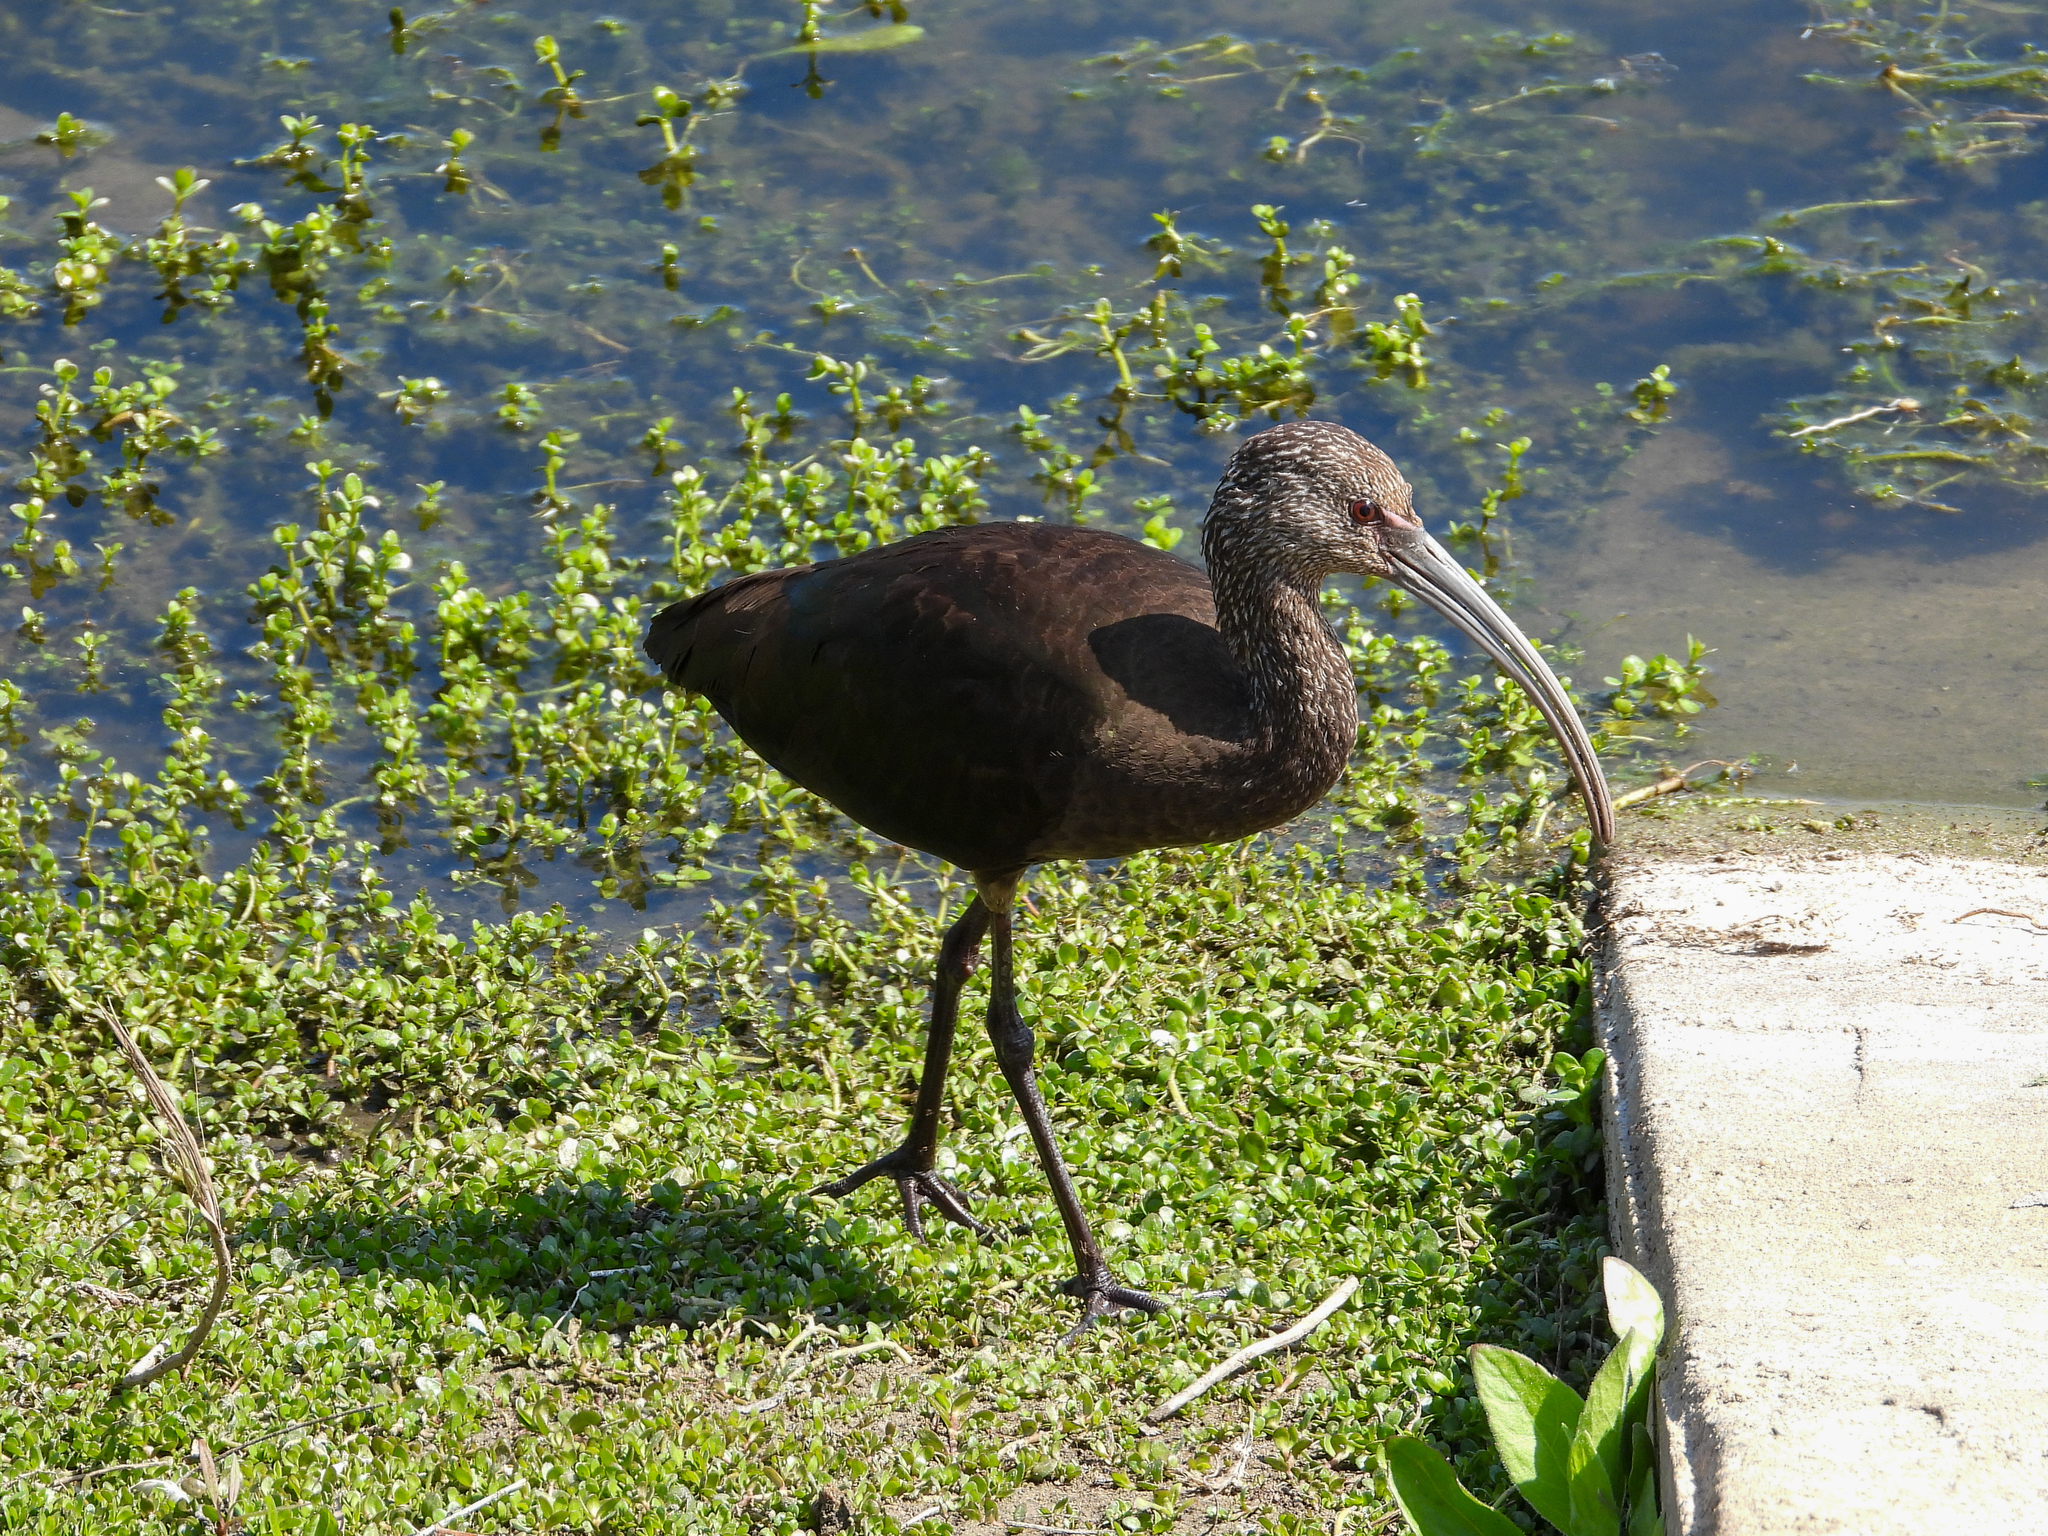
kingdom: Animalia
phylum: Chordata
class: Aves
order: Pelecaniformes
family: Threskiornithidae
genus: Plegadis
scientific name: Plegadis chihi
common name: White-faced ibis
